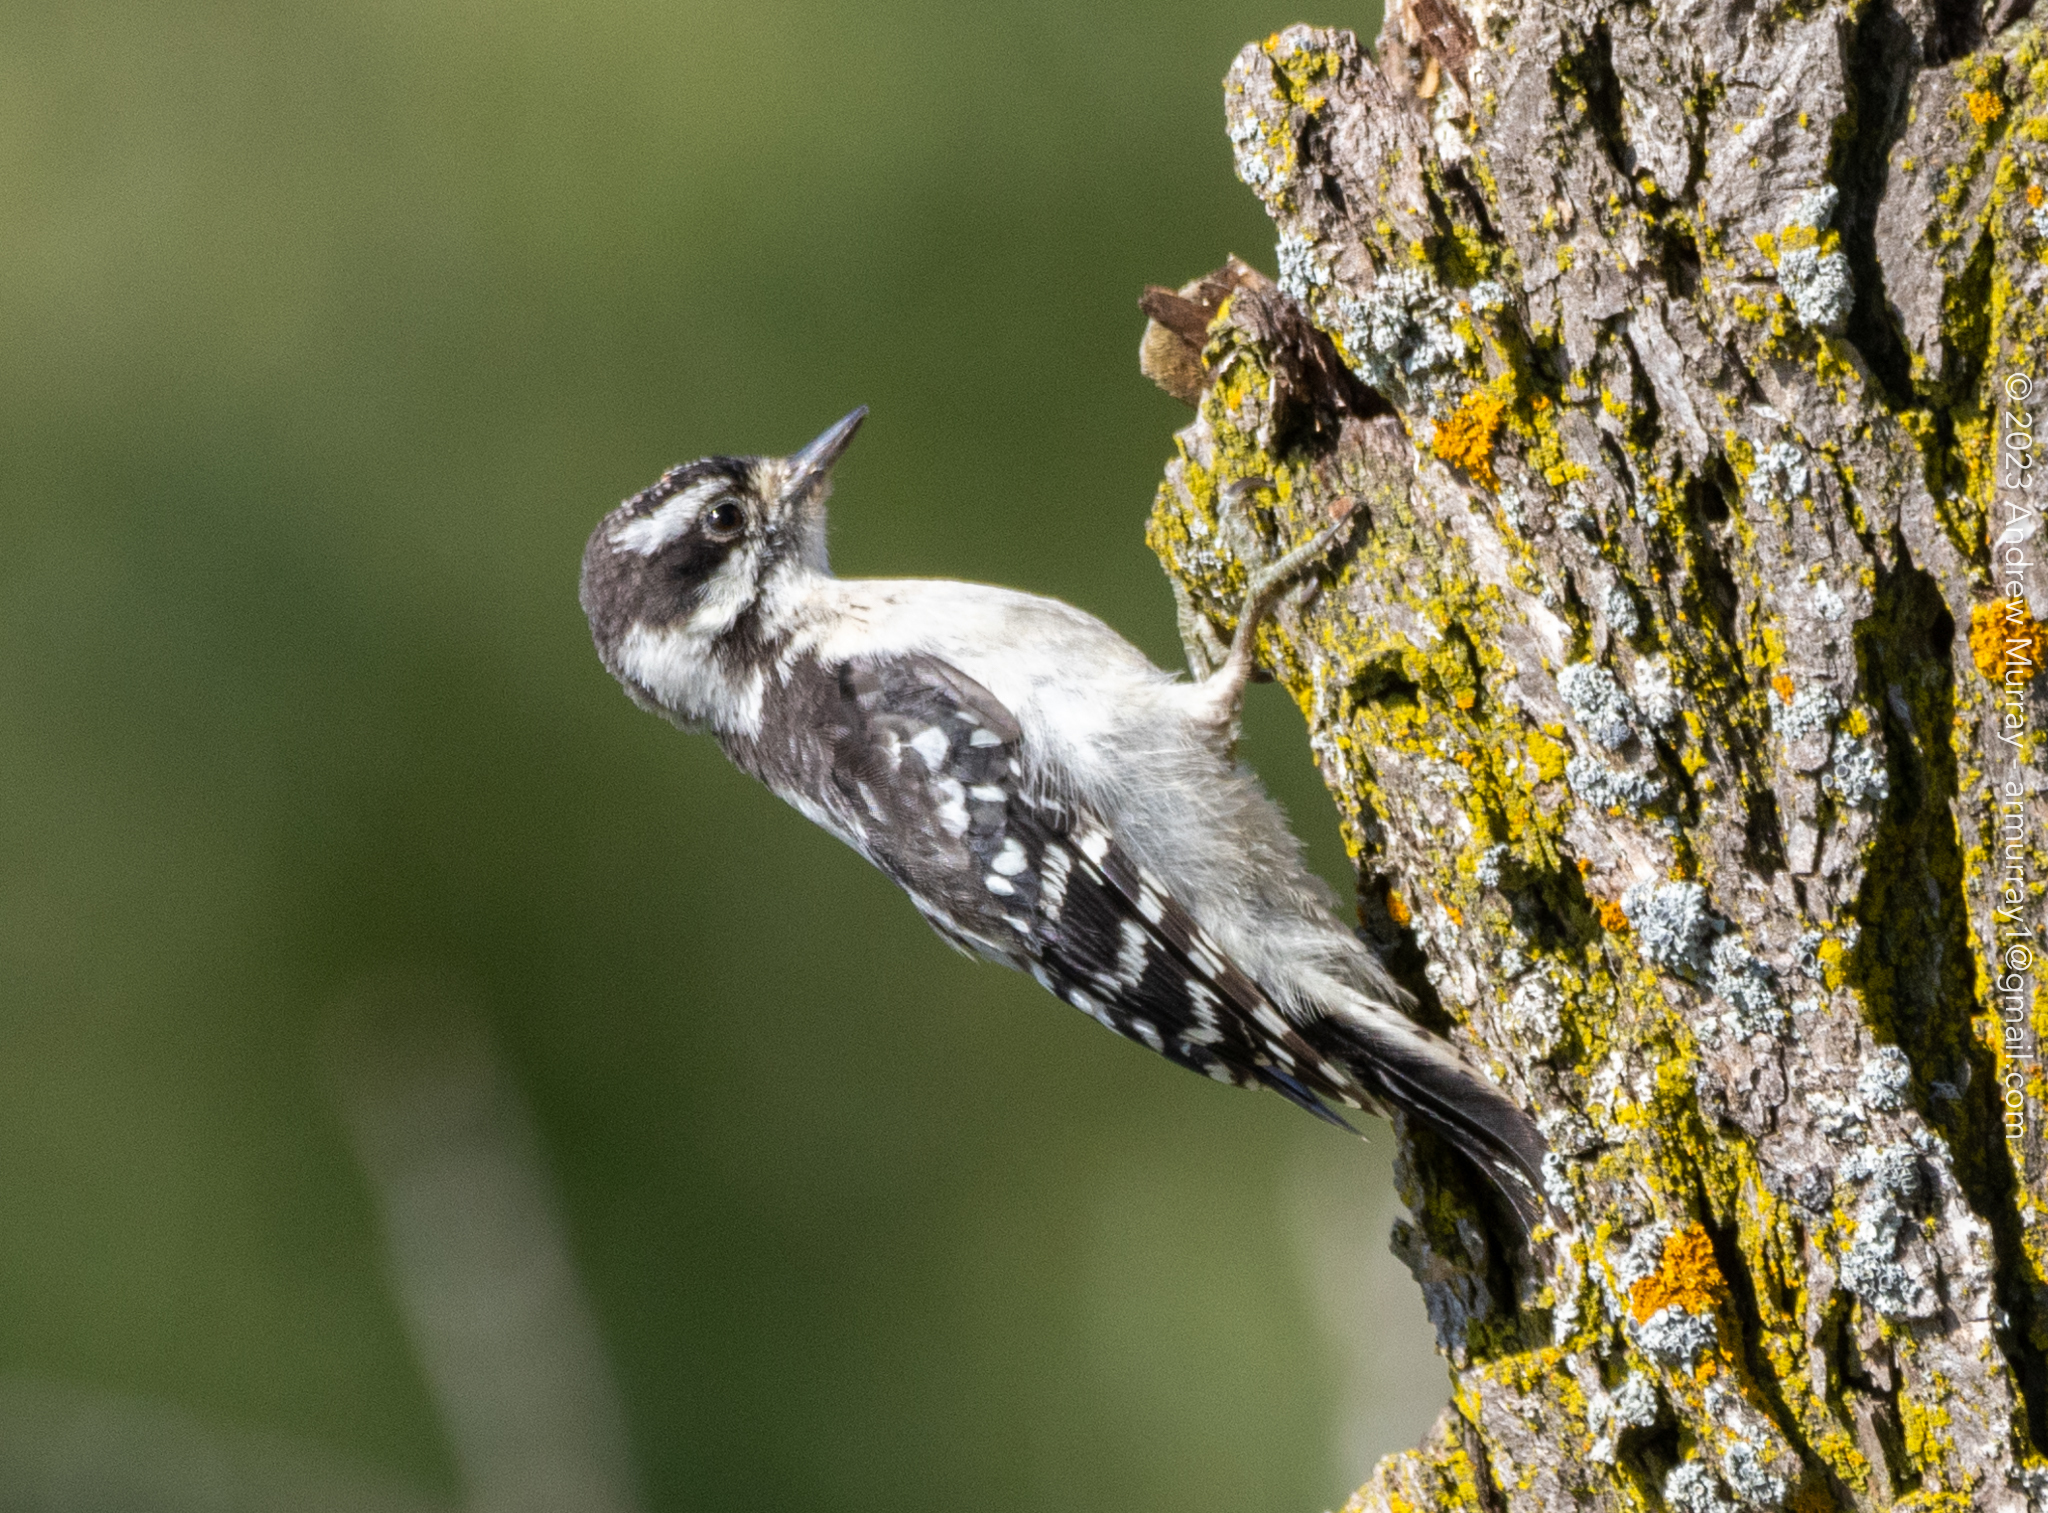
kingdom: Animalia
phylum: Chordata
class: Aves
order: Piciformes
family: Picidae
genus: Dryobates
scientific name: Dryobates pubescens
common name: Downy woodpecker
